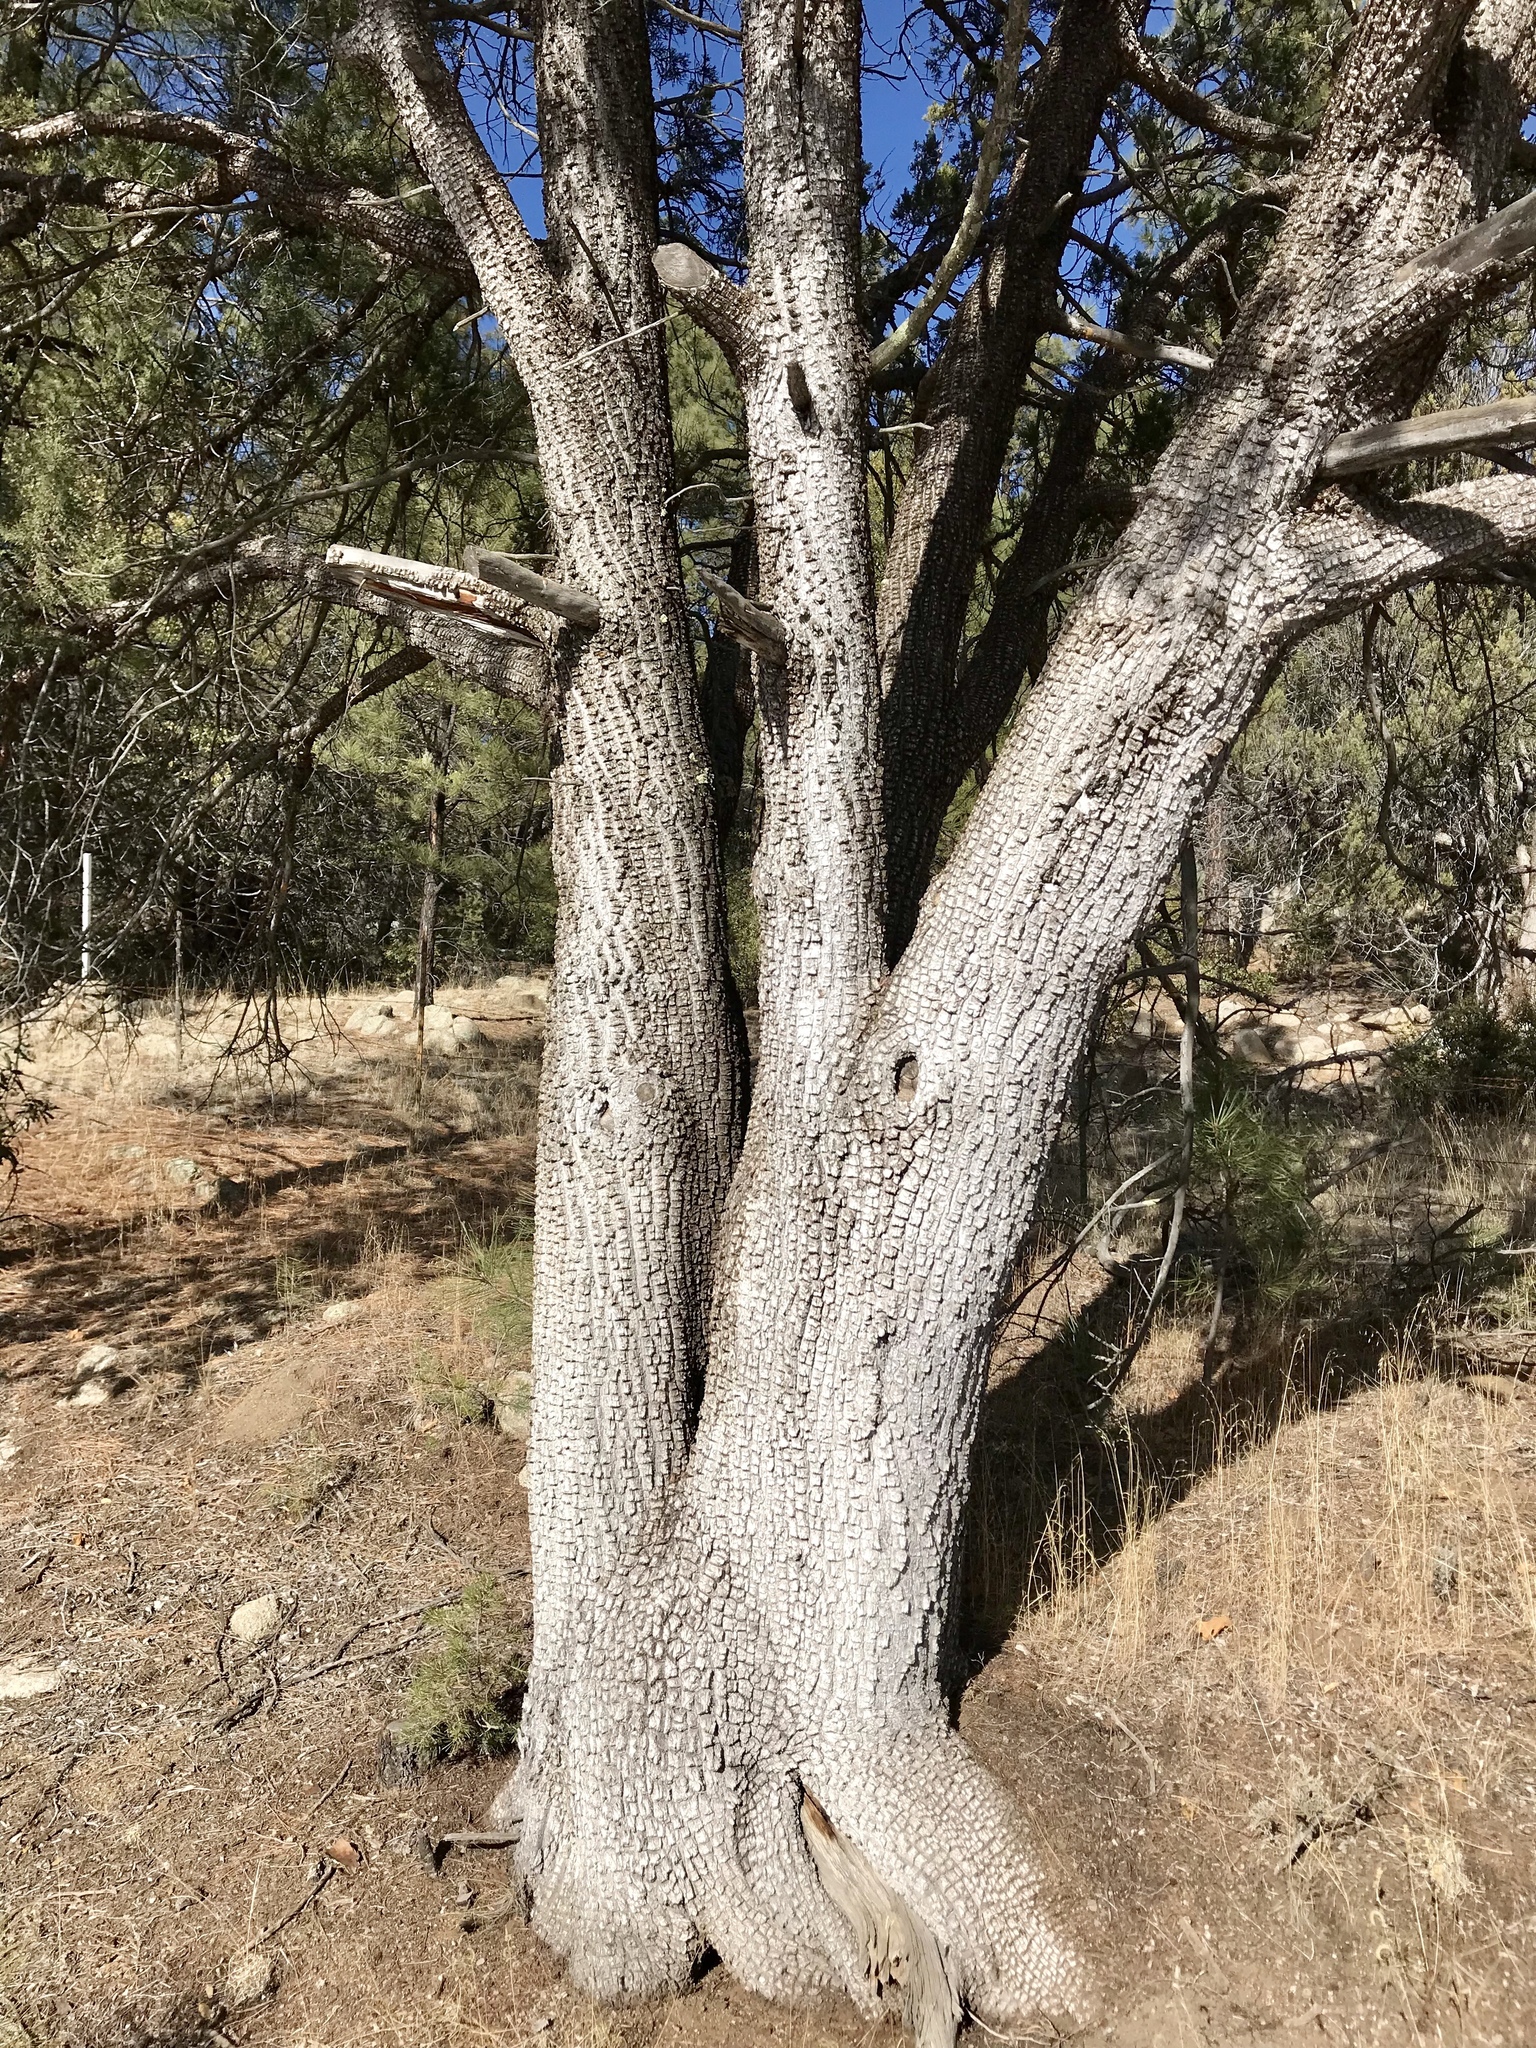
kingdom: Plantae
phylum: Tracheophyta
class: Pinopsida
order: Pinales
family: Cupressaceae
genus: Juniperus
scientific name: Juniperus deppeana
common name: Alligator juniper
